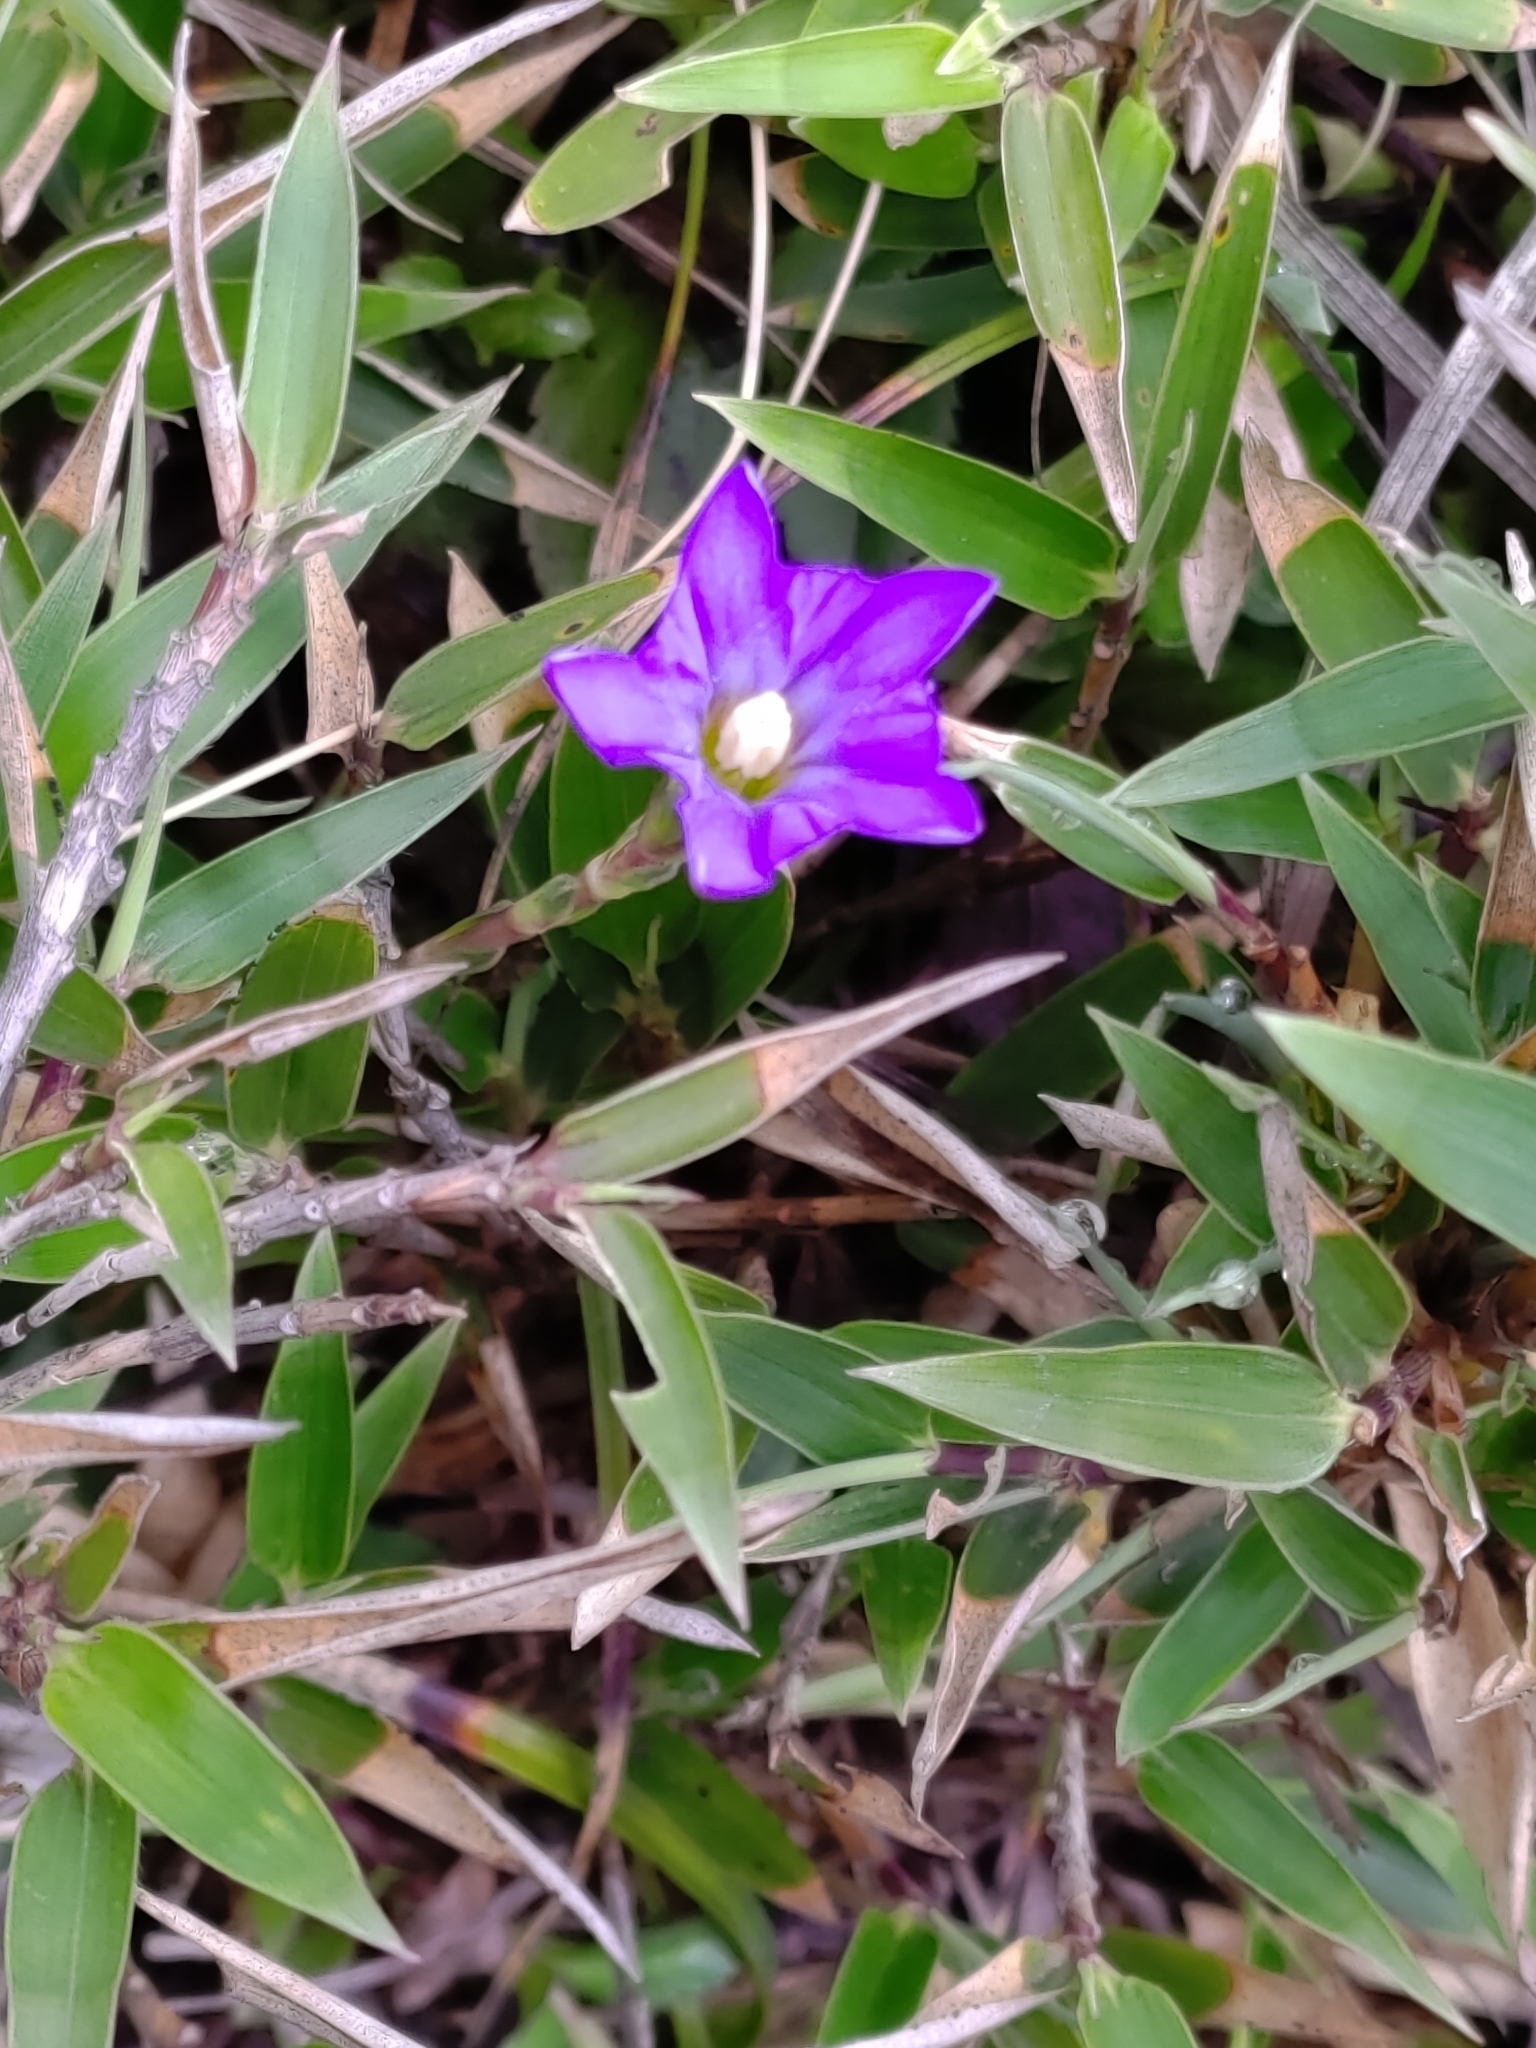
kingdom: Plantae
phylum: Tracheophyta
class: Magnoliopsida
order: Gentianales
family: Gentianaceae
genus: Gentiana
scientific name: Gentiana arisanensis
